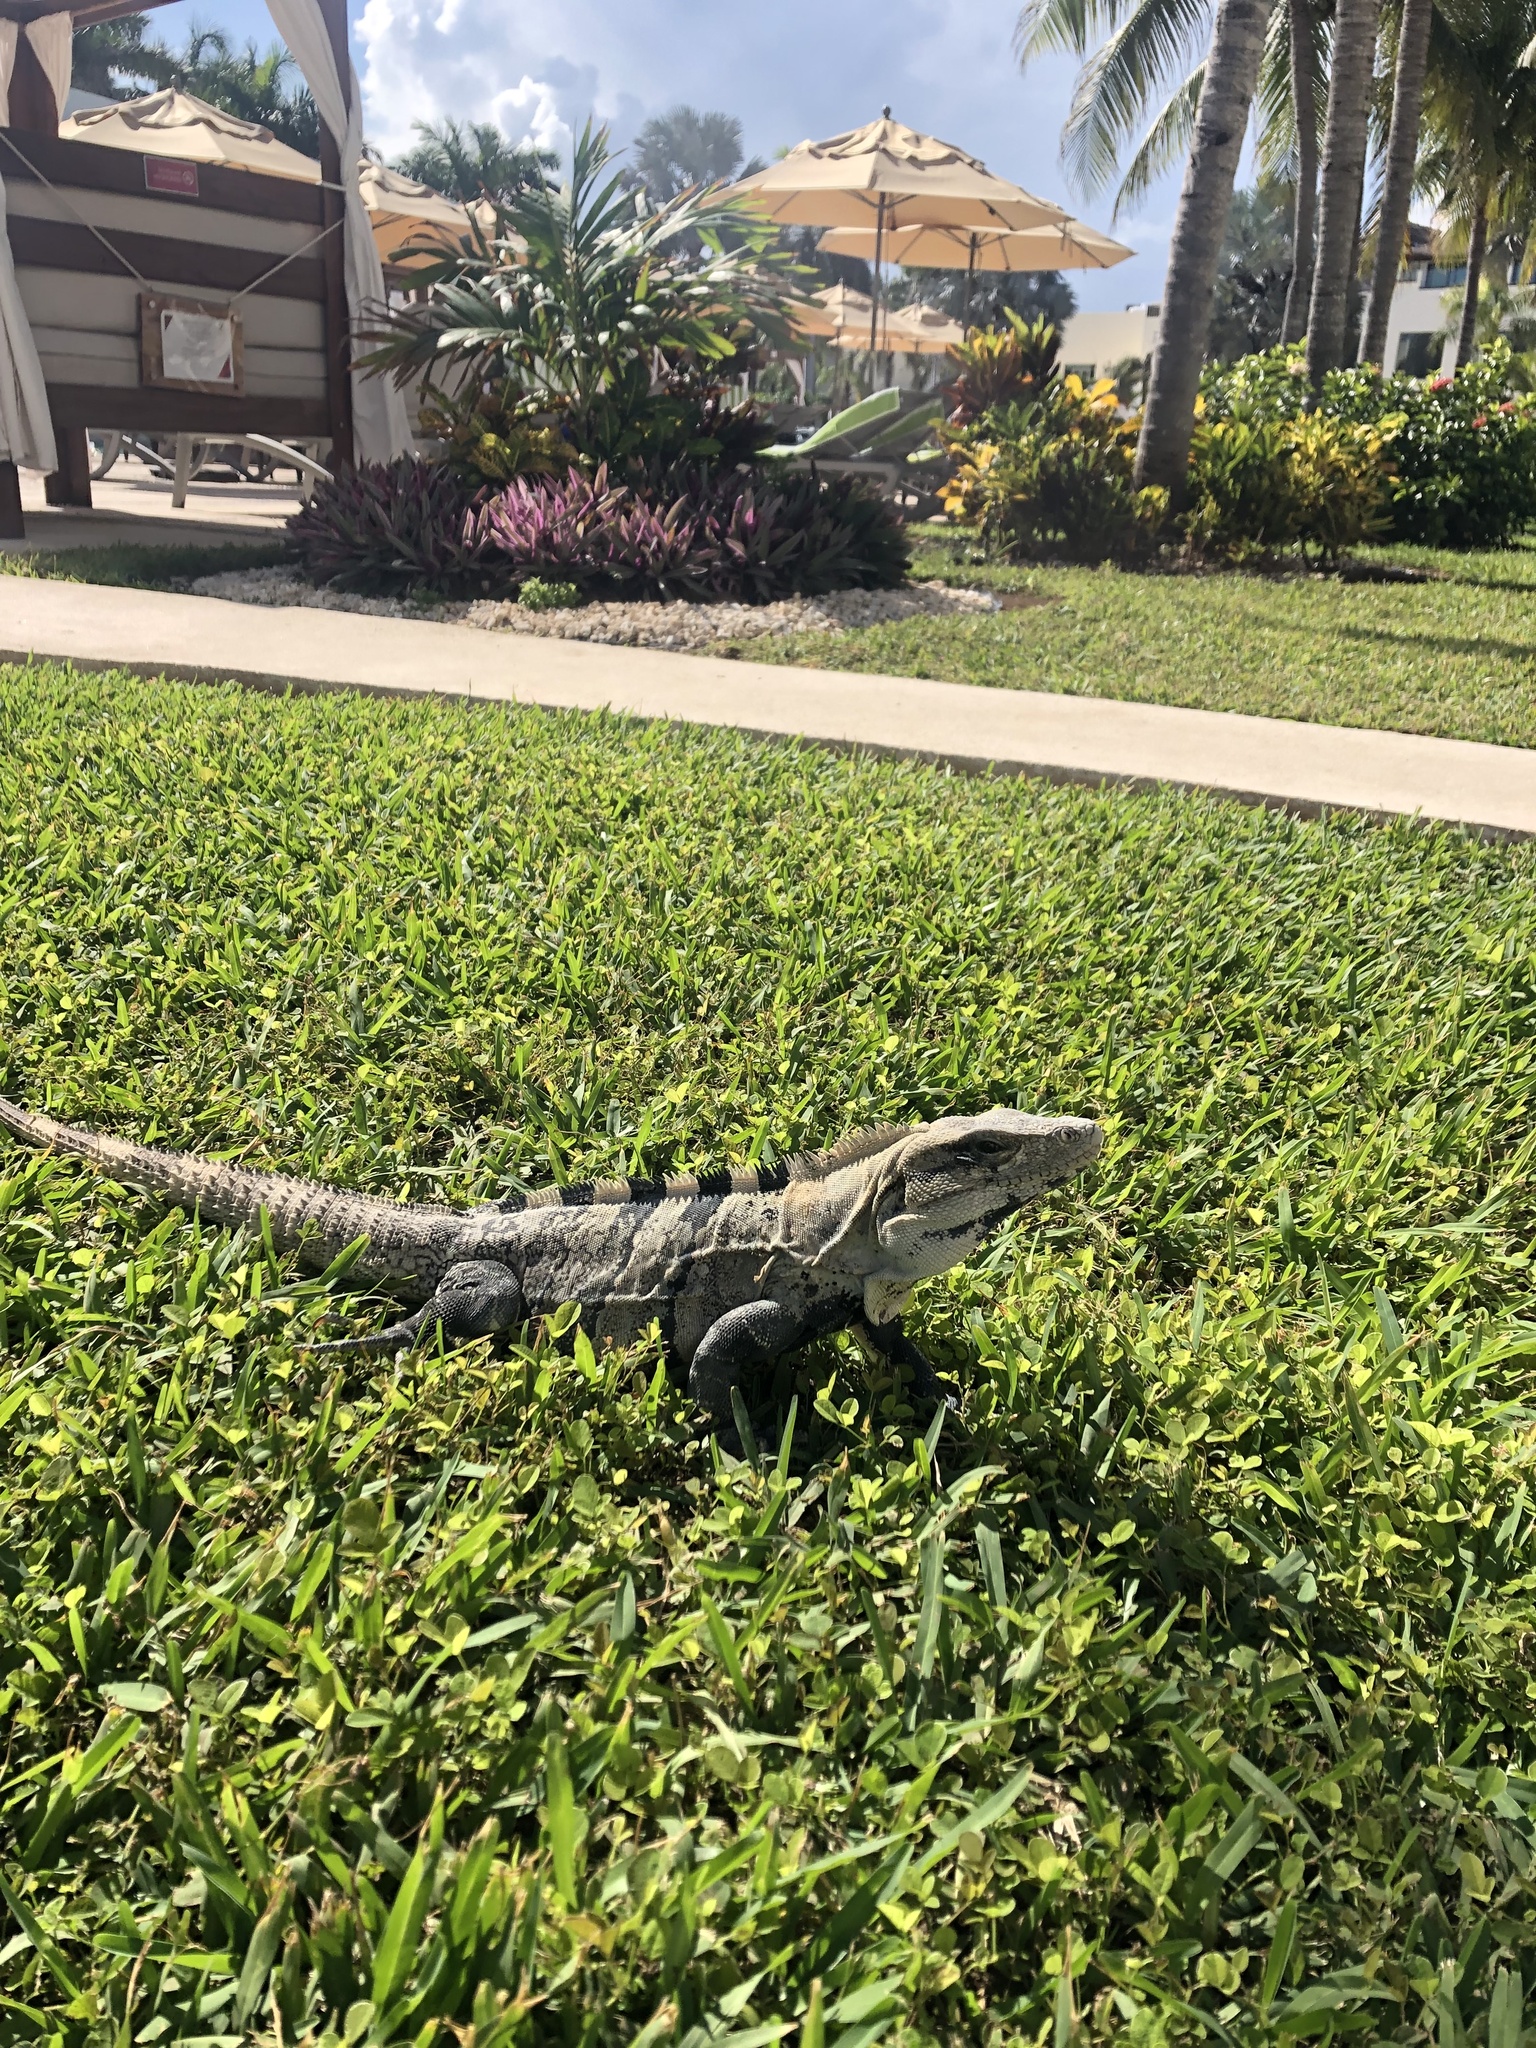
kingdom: Animalia
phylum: Chordata
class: Squamata
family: Iguanidae
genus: Ctenosaura
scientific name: Ctenosaura similis
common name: Black spiny-tailed iguana
